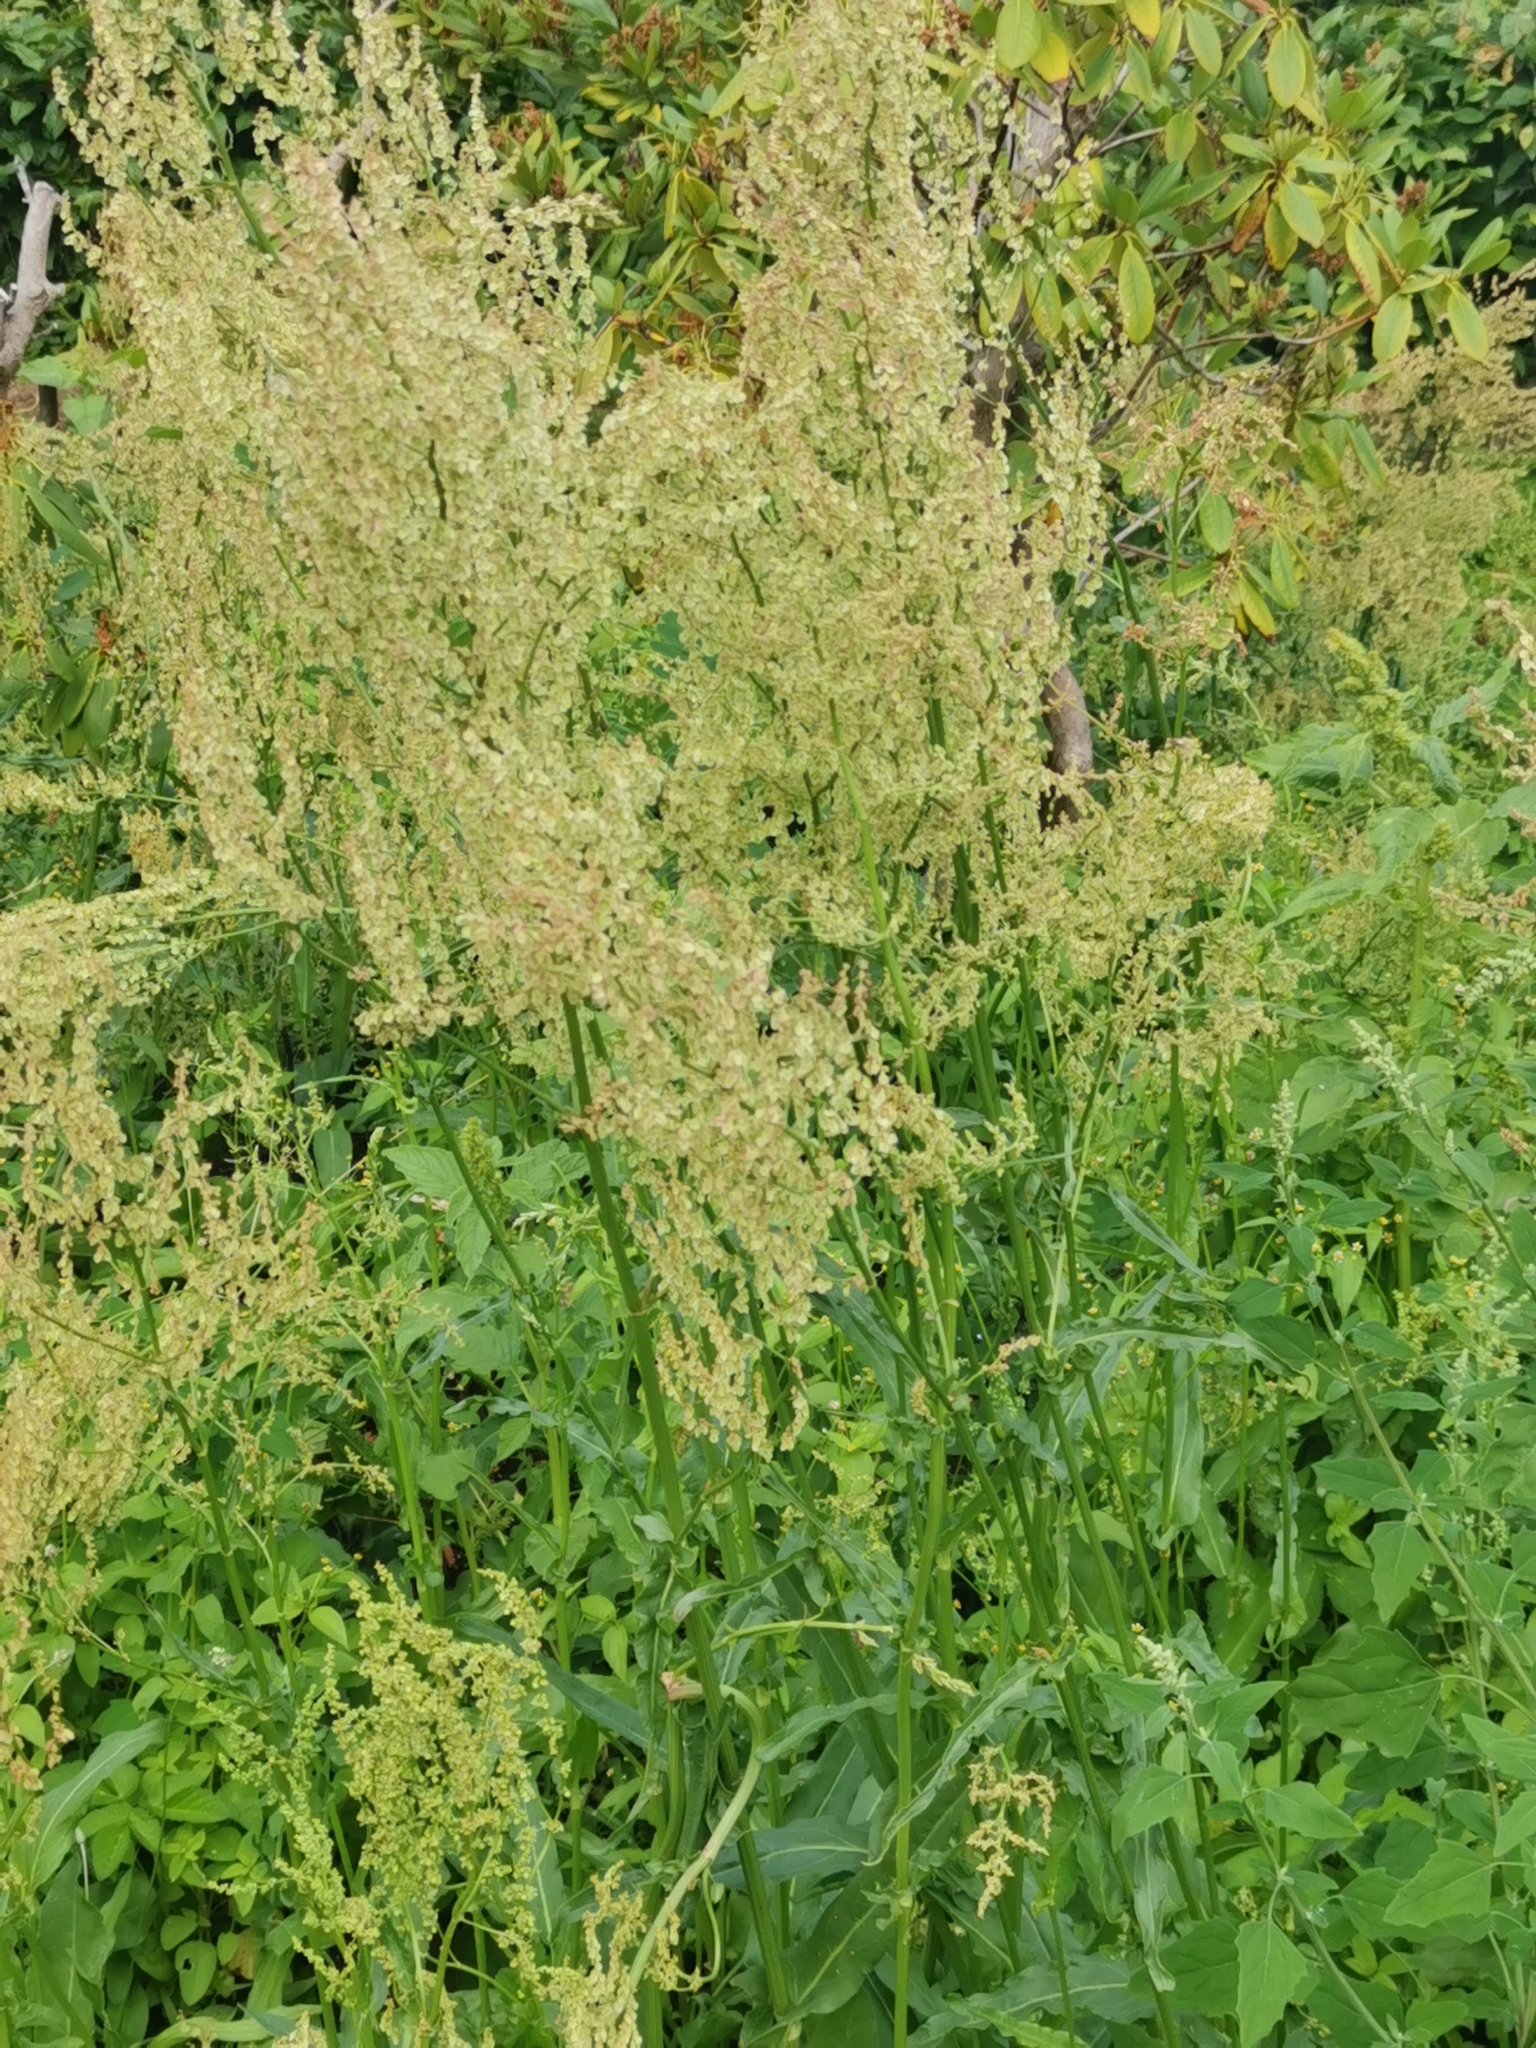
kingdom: Plantae
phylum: Tracheophyta
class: Magnoliopsida
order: Caryophyllales
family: Polygonaceae
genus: Rumex
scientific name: Rumex thyrsiflorus
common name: Garden sorrel
